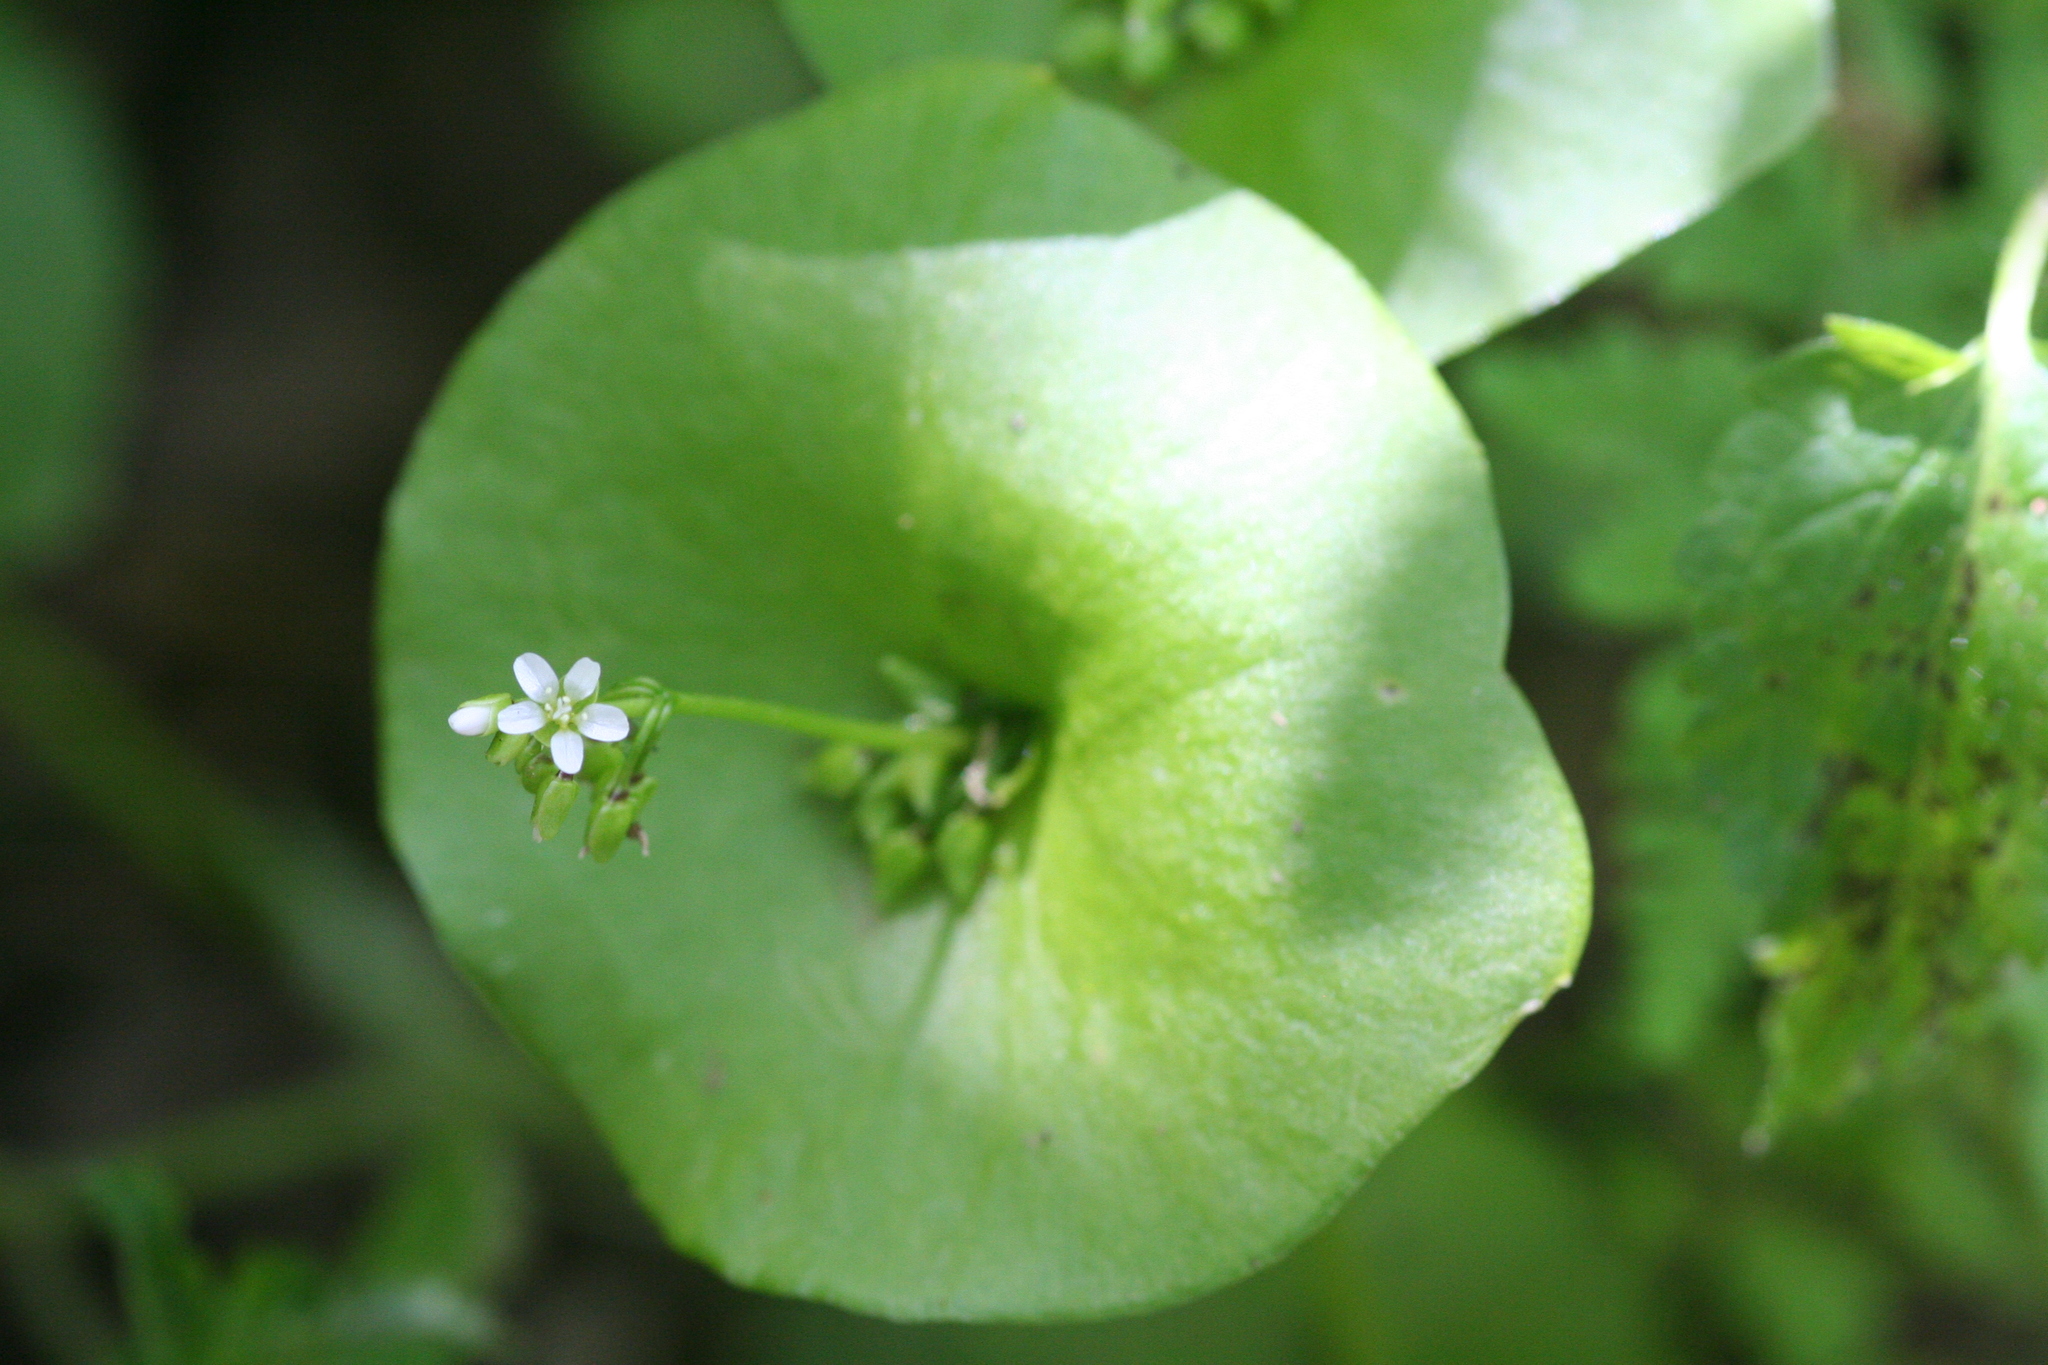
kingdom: Plantae
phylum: Tracheophyta
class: Magnoliopsida
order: Caryophyllales
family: Montiaceae
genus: Claytonia
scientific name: Claytonia perfoliata
